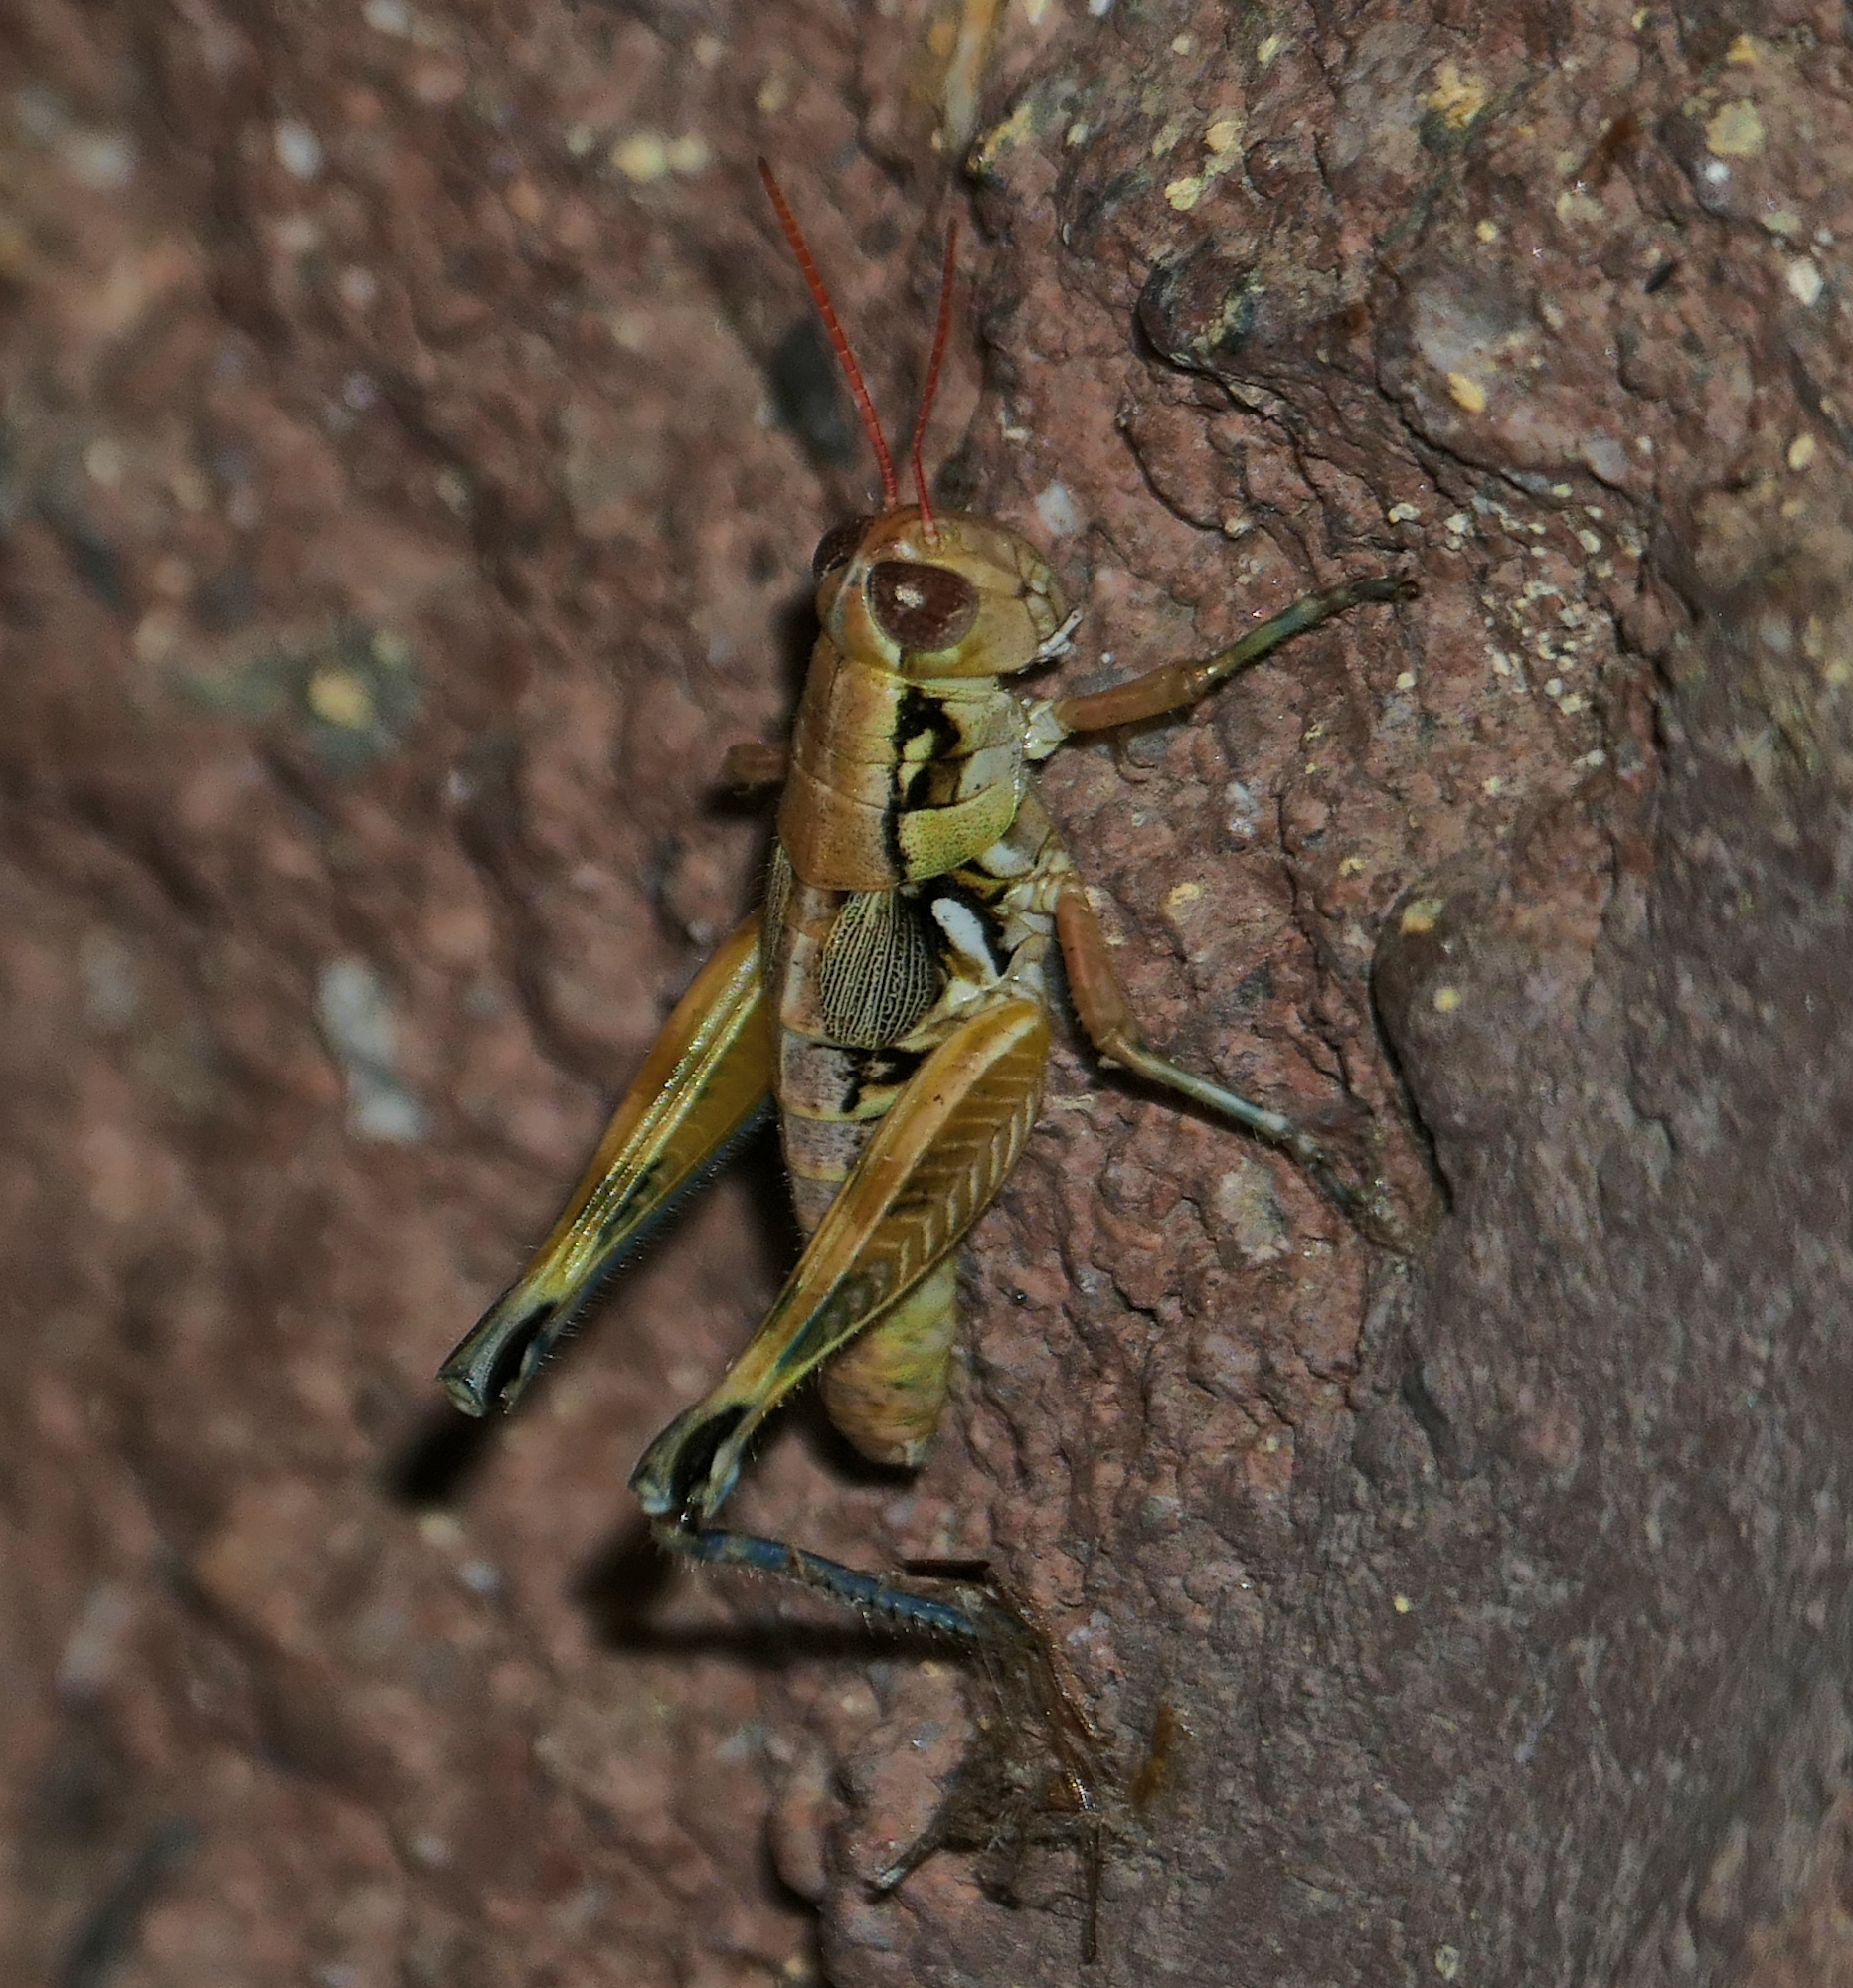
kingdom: Animalia
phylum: Arthropoda
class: Insecta
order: Orthoptera
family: Acrididae
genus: Melanoplus
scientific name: Melanoplus aridus
